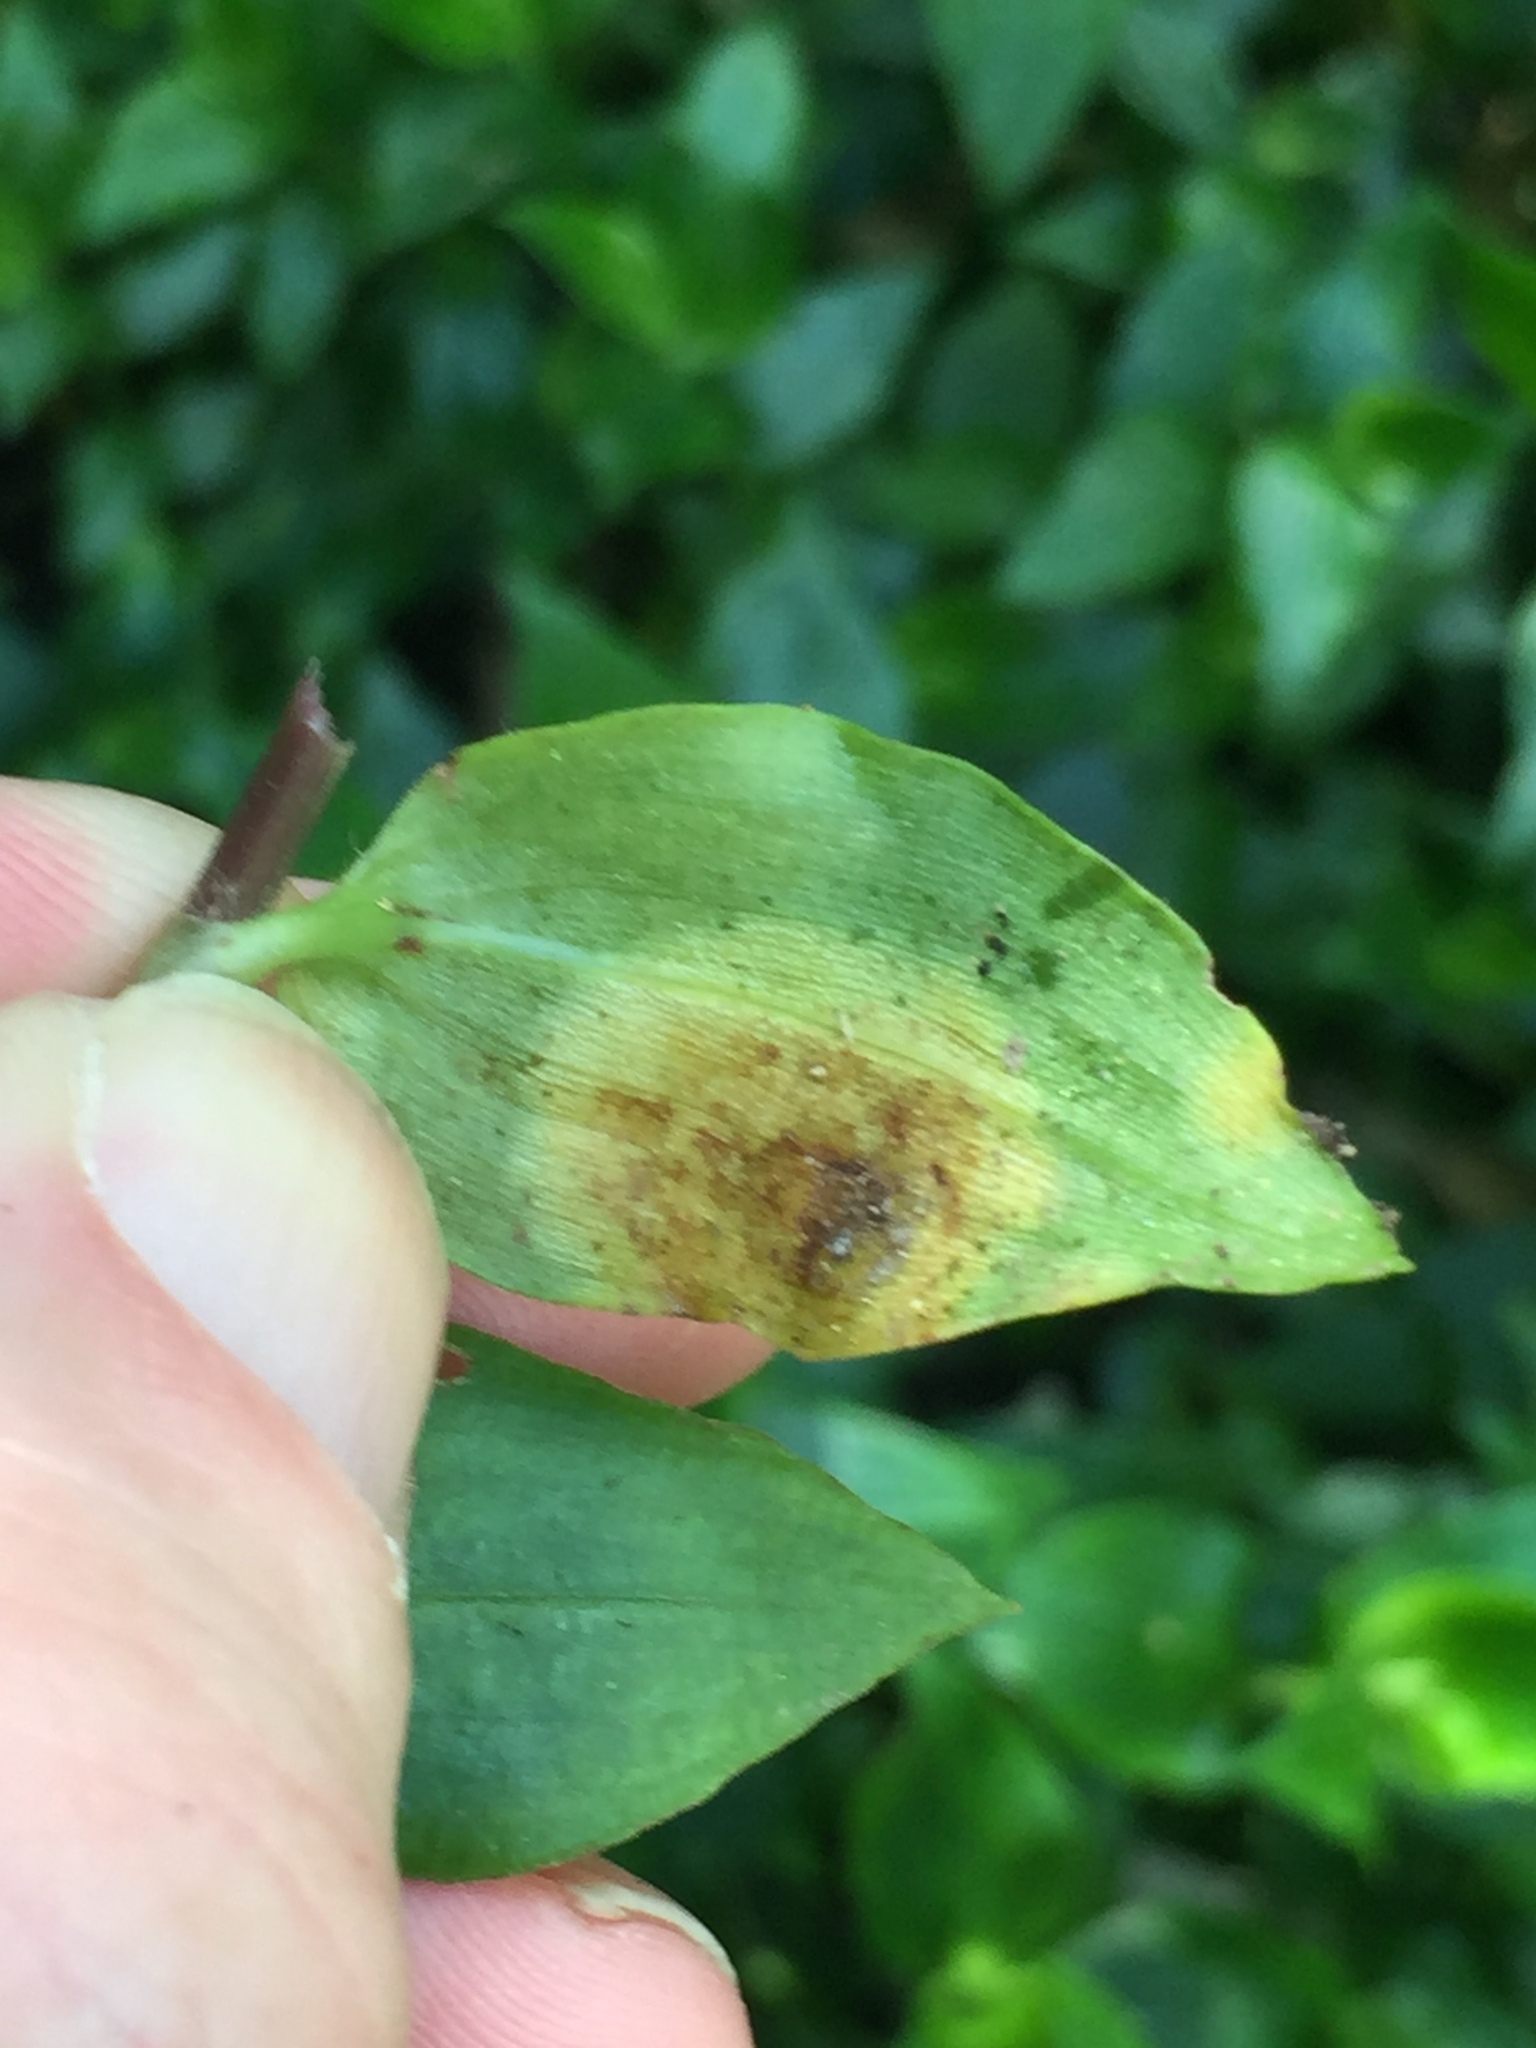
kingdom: Fungi
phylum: Basidiomycota
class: Exobasidiomycetes
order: Exobasidiales
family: Brachybasidiaceae
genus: Kordyana
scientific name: Kordyana brasiliensis
